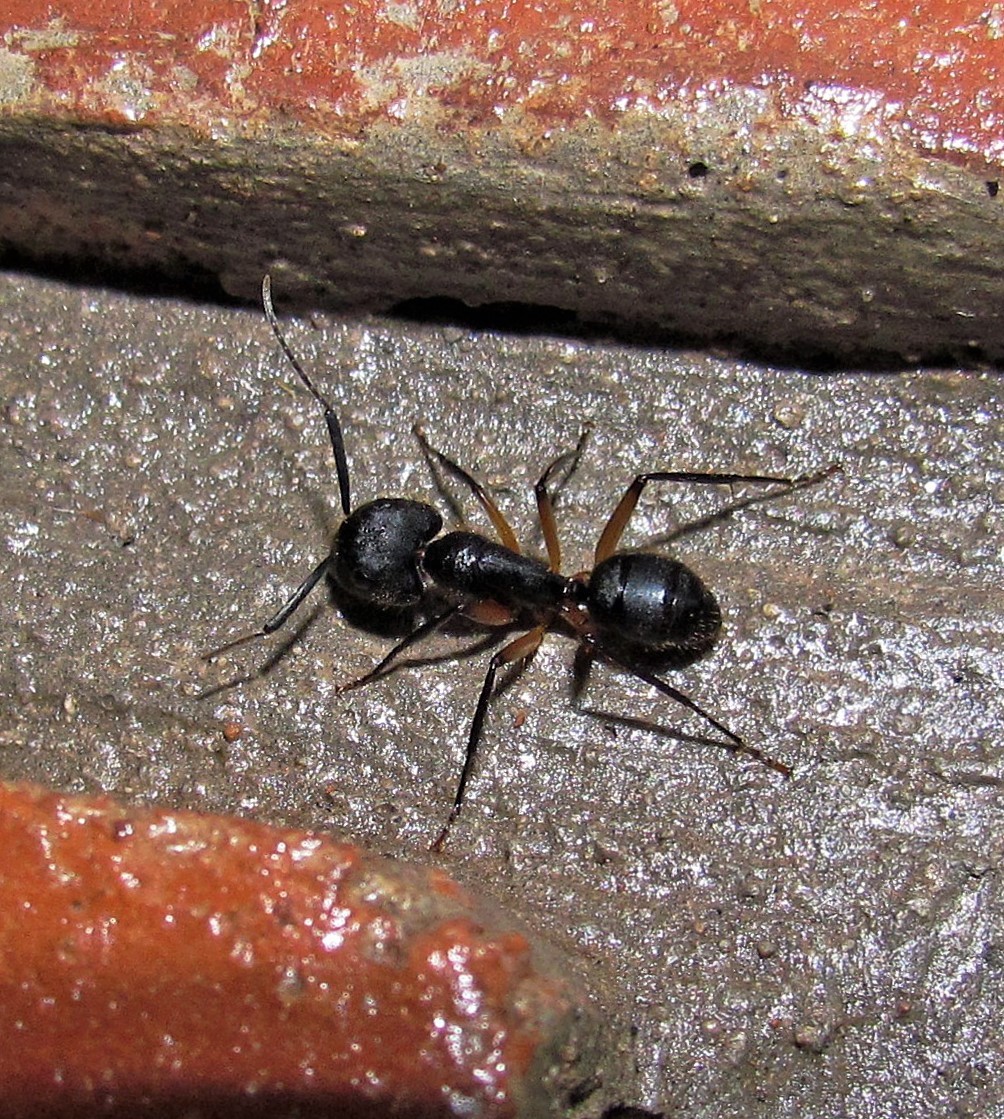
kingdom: Animalia
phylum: Arthropoda
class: Insecta
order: Hymenoptera
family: Formicidae
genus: Camponotus
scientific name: Camponotus renggeri
